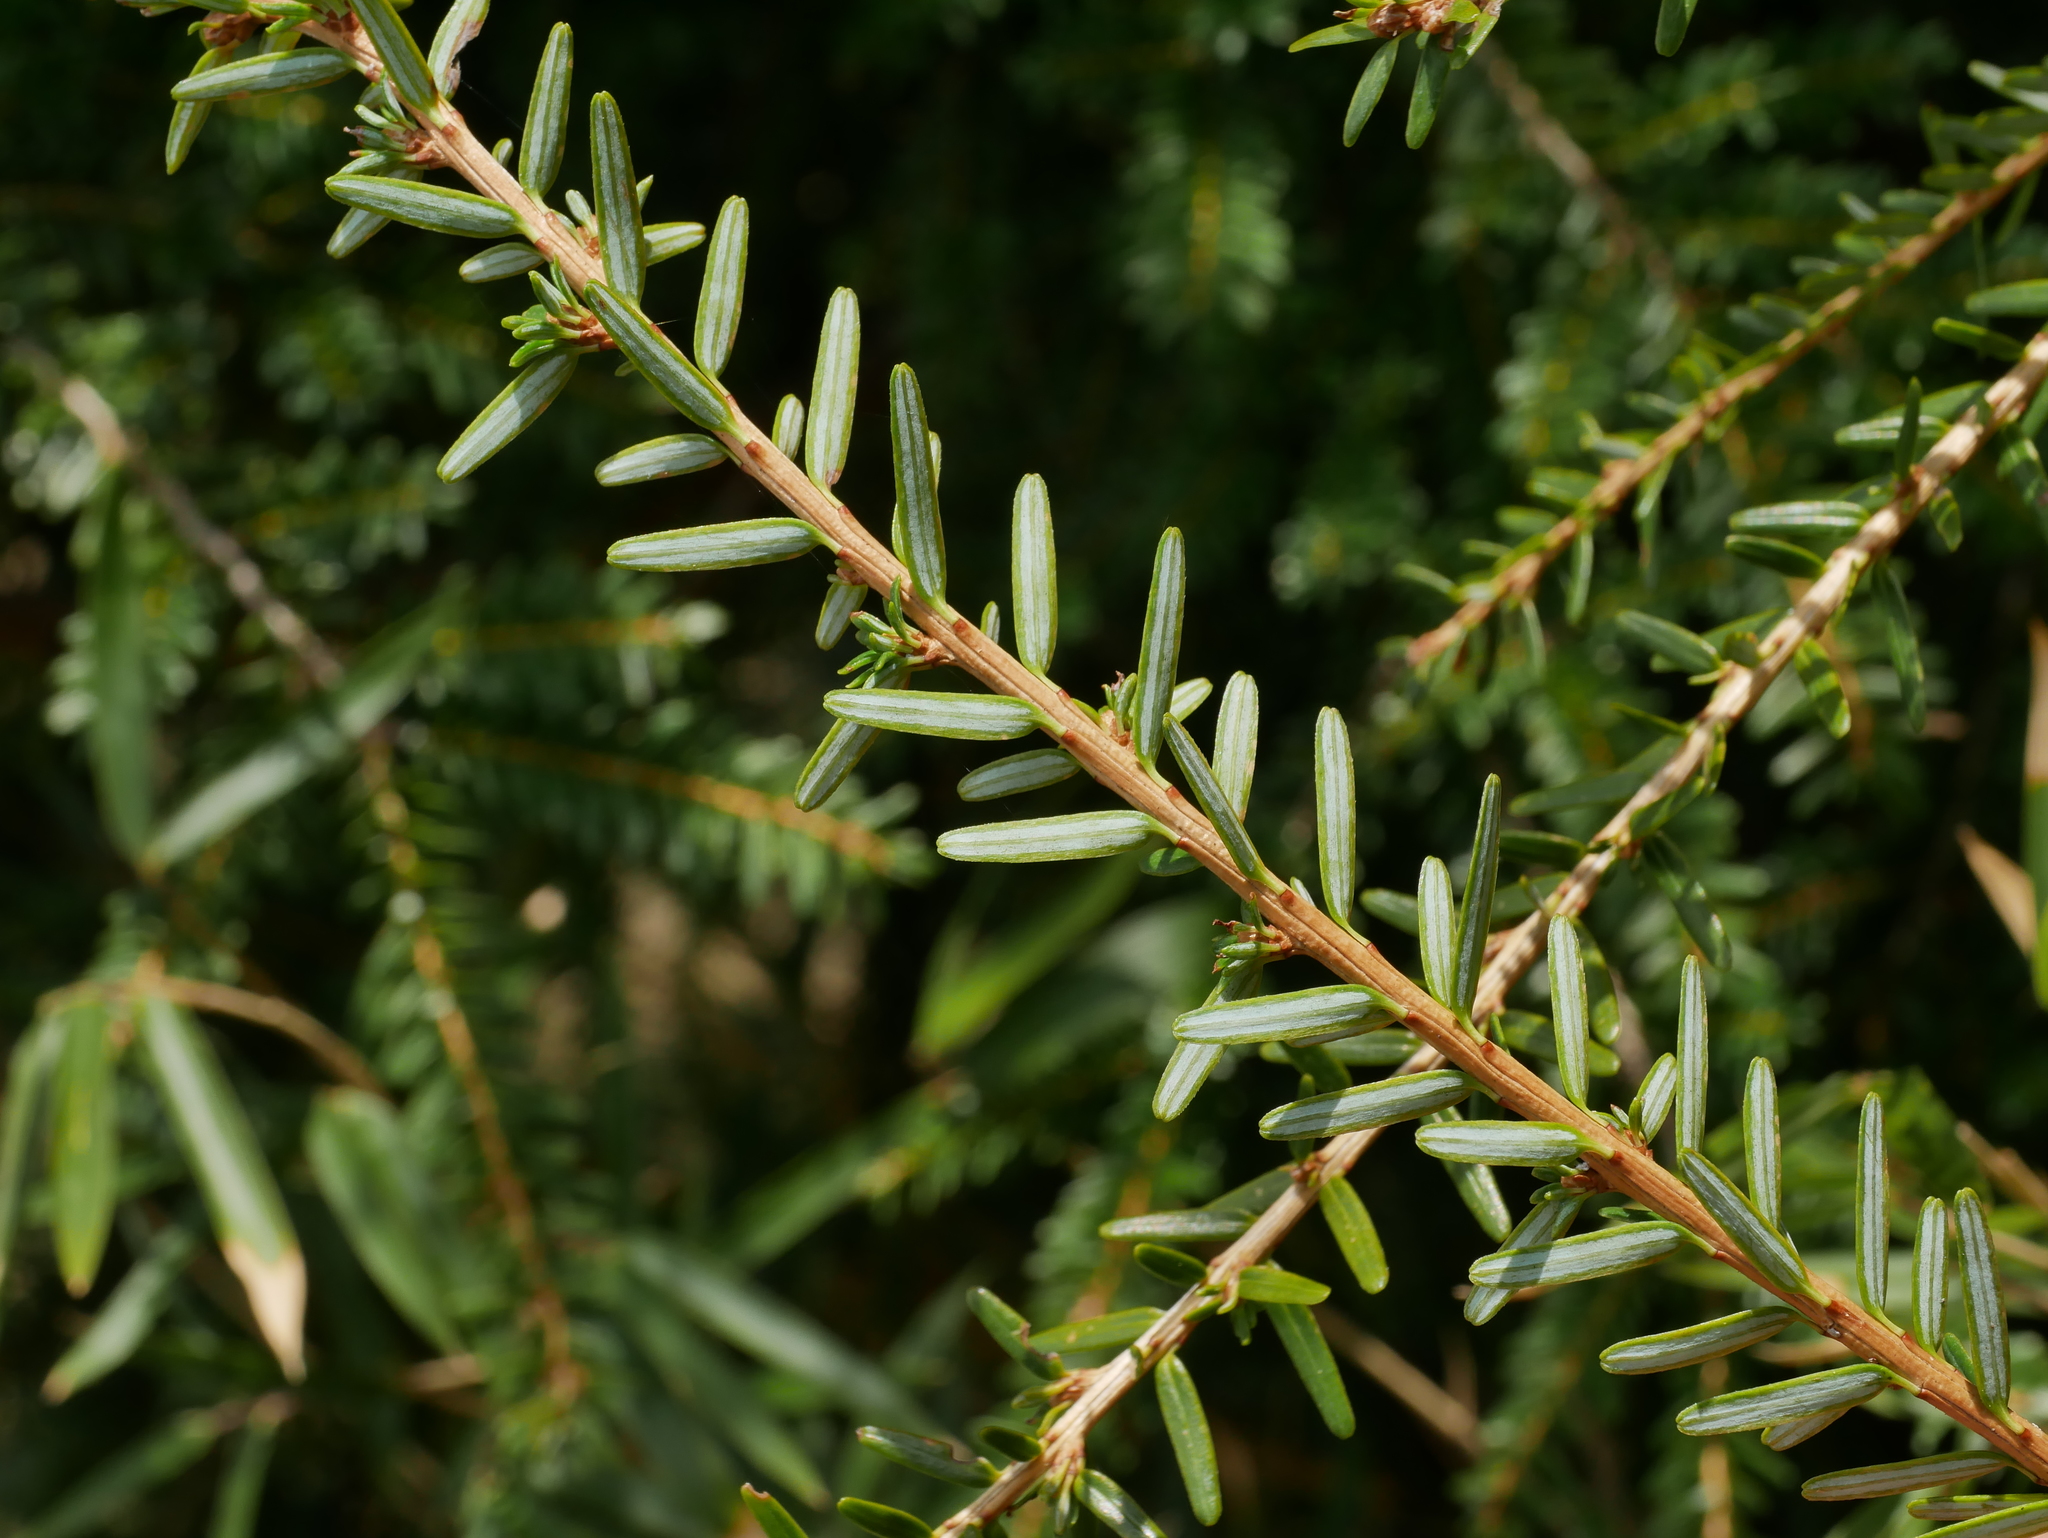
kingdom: Plantae
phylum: Tracheophyta
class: Pinopsida
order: Pinales
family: Pinaceae
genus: Tsuga
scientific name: Tsuga chinensis
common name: Chinese hemlock
